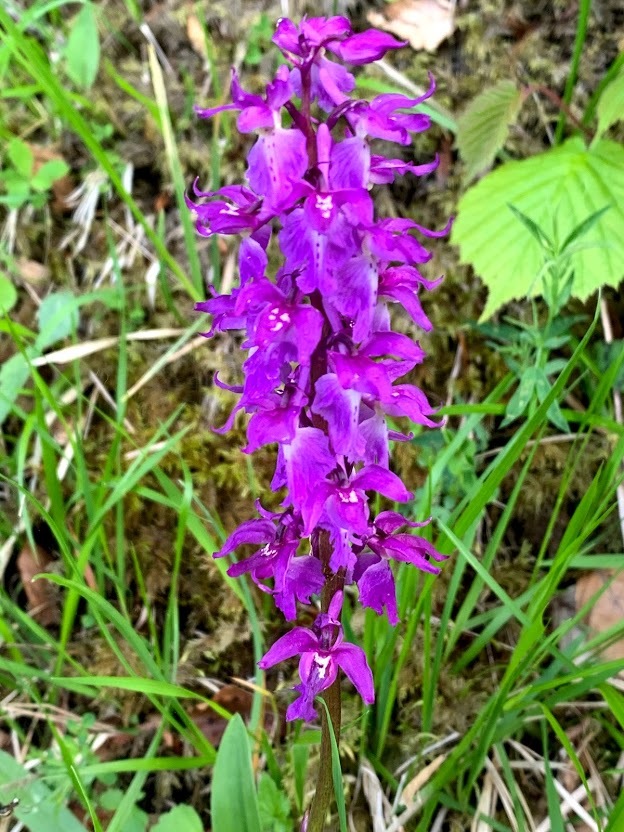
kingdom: Plantae
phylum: Tracheophyta
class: Liliopsida
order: Asparagales
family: Orchidaceae
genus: Orchis
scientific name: Orchis mascula
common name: Early-purple orchid
